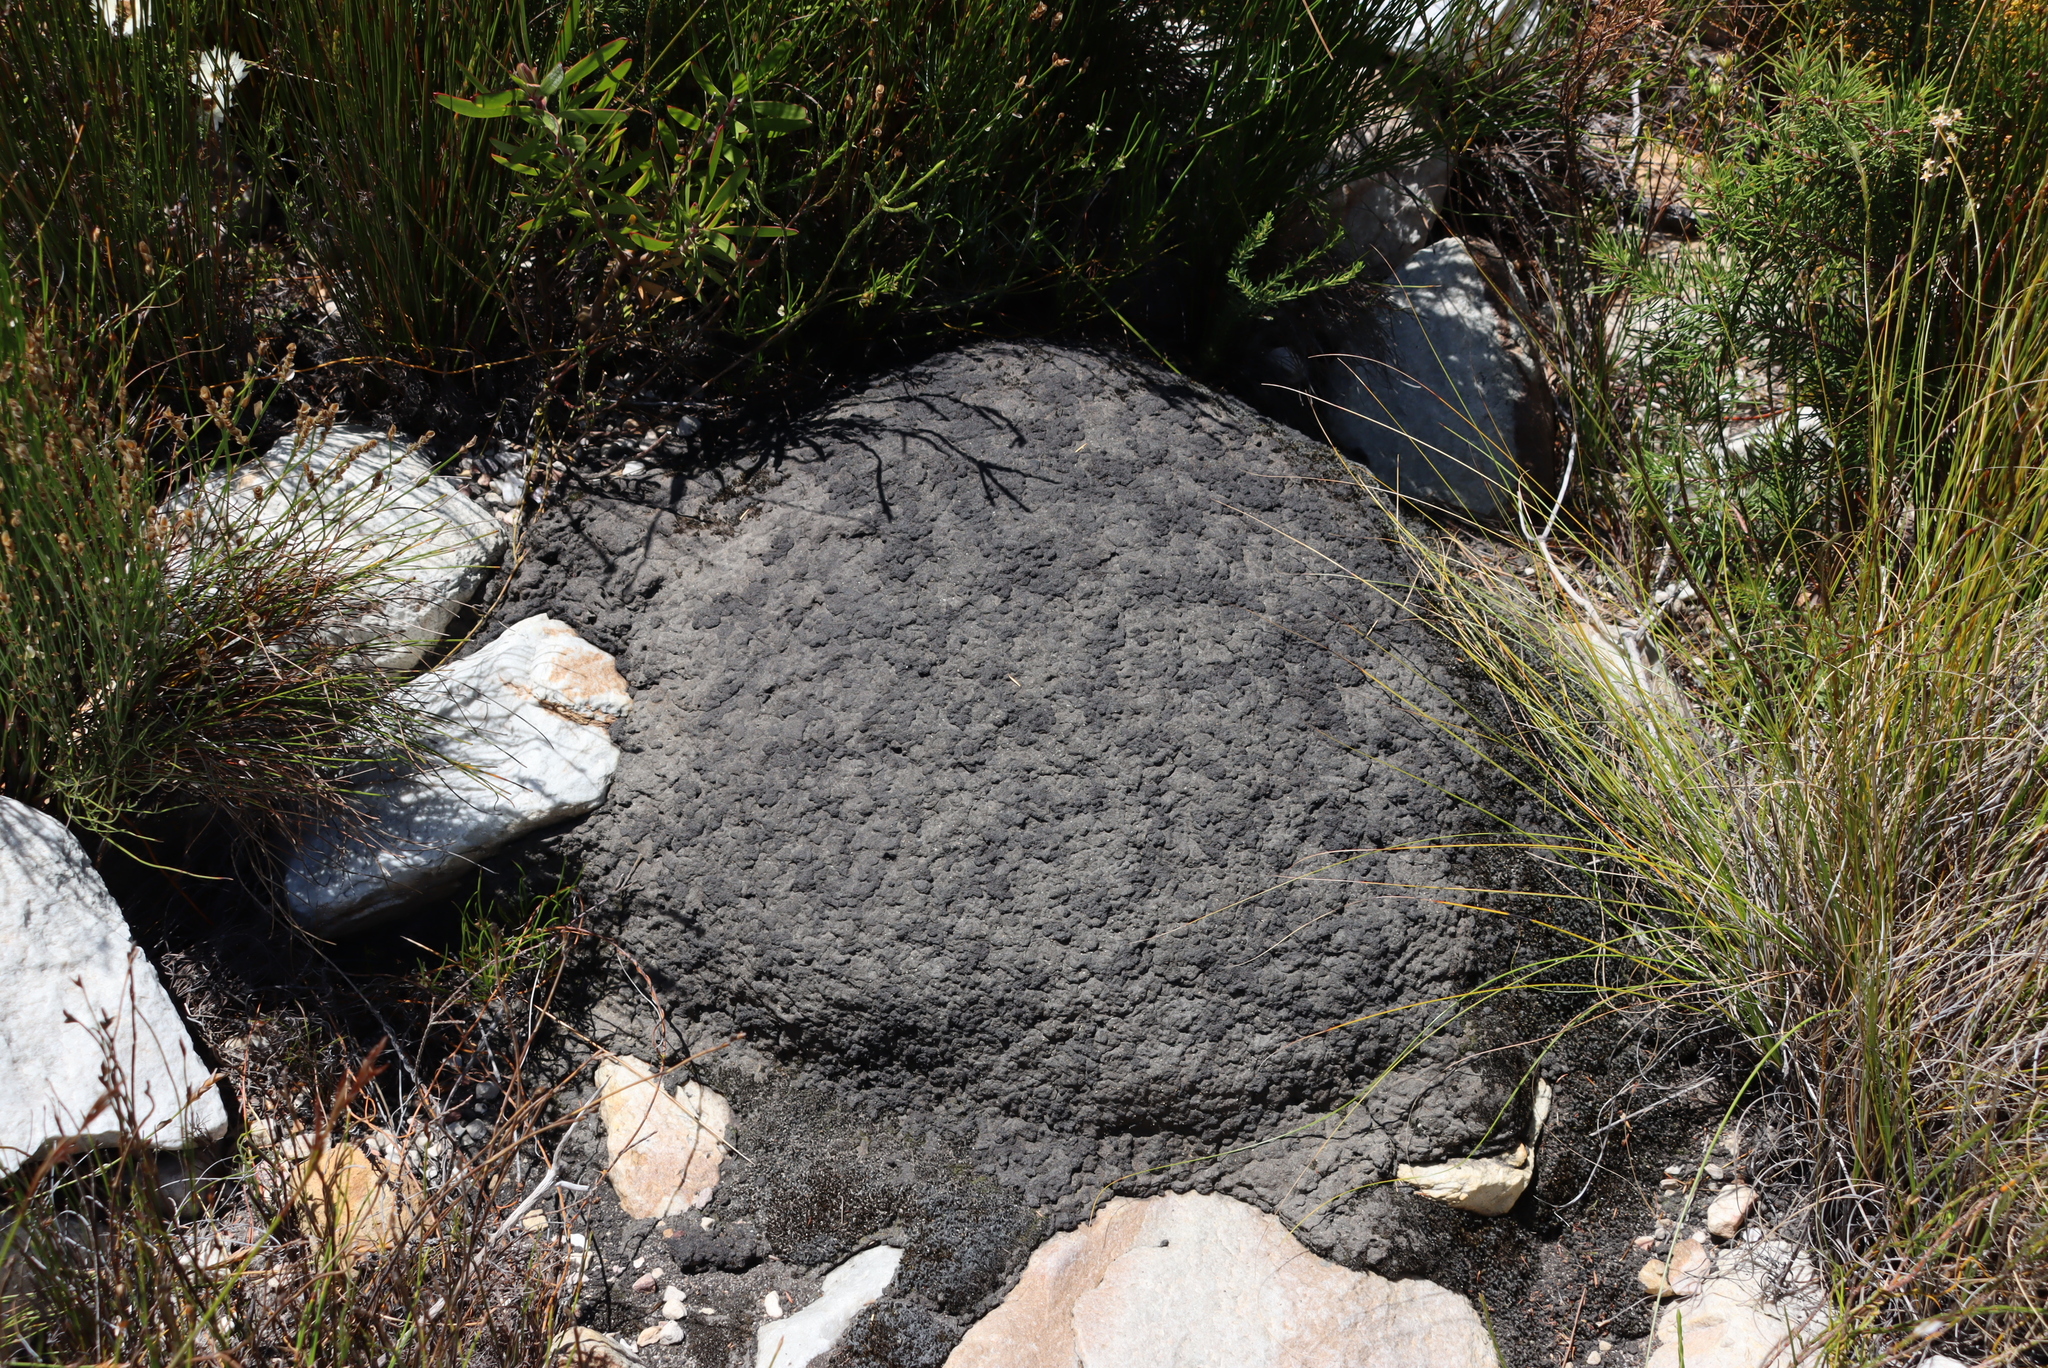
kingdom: Animalia
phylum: Arthropoda
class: Insecta
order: Blattodea
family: Termitidae
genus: Amitermes
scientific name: Amitermes hastatus
